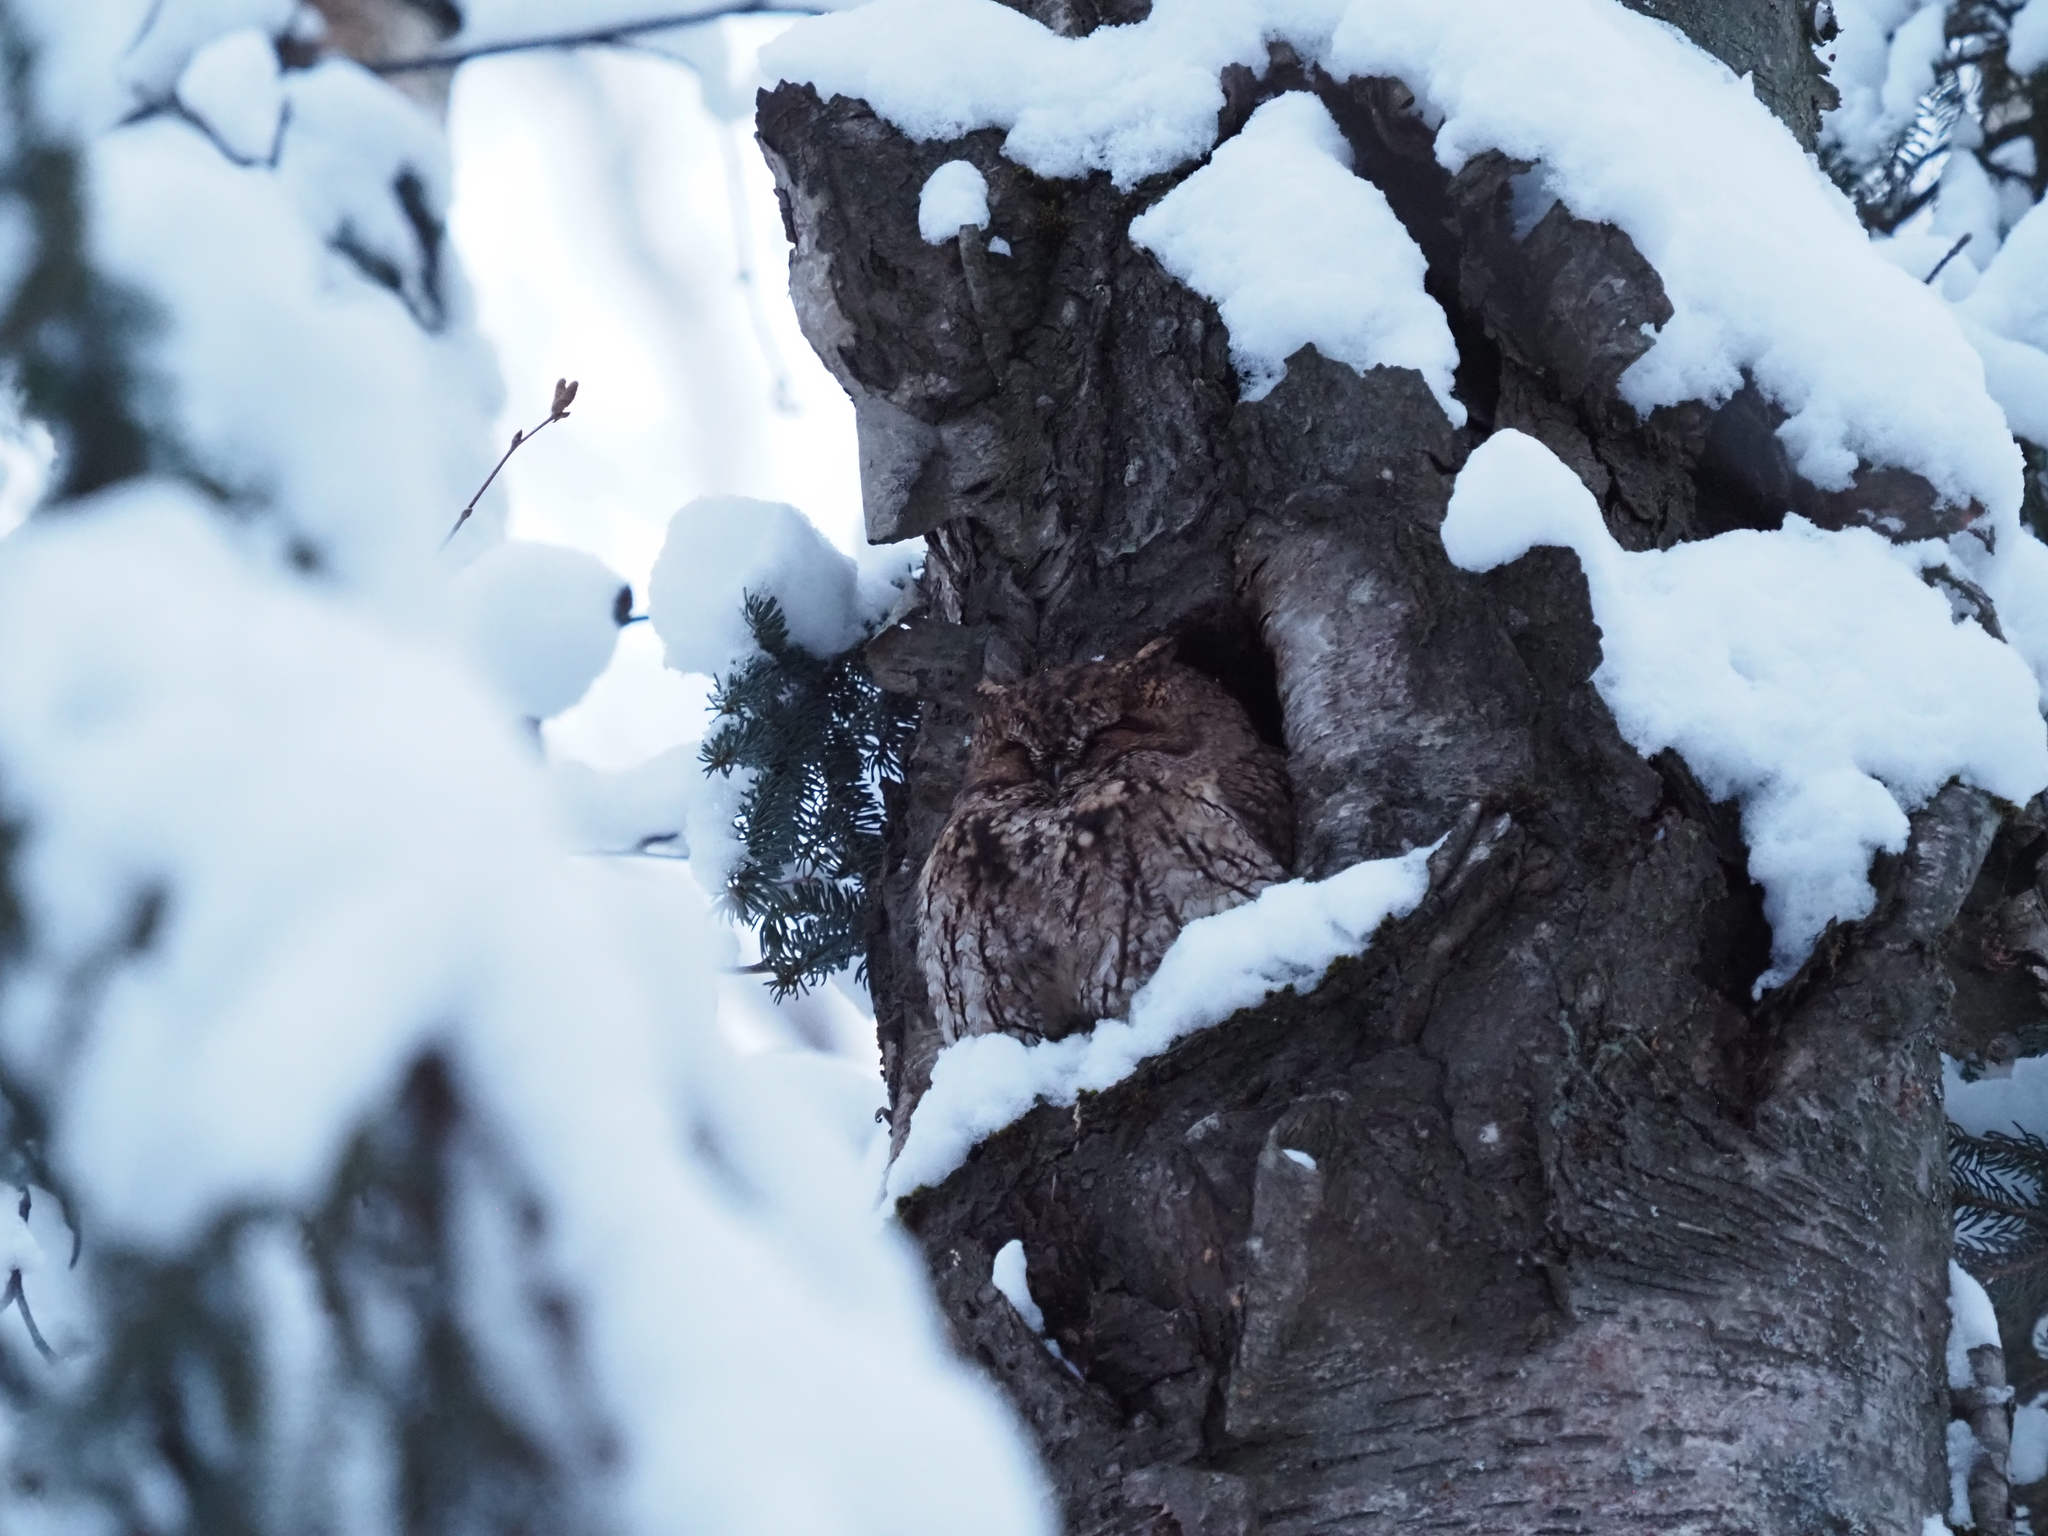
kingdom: Animalia
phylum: Chordata
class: Aves
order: Strigiformes
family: Strigidae
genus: Megascops
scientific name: Megascops kennicottii
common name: Western screech-owl
